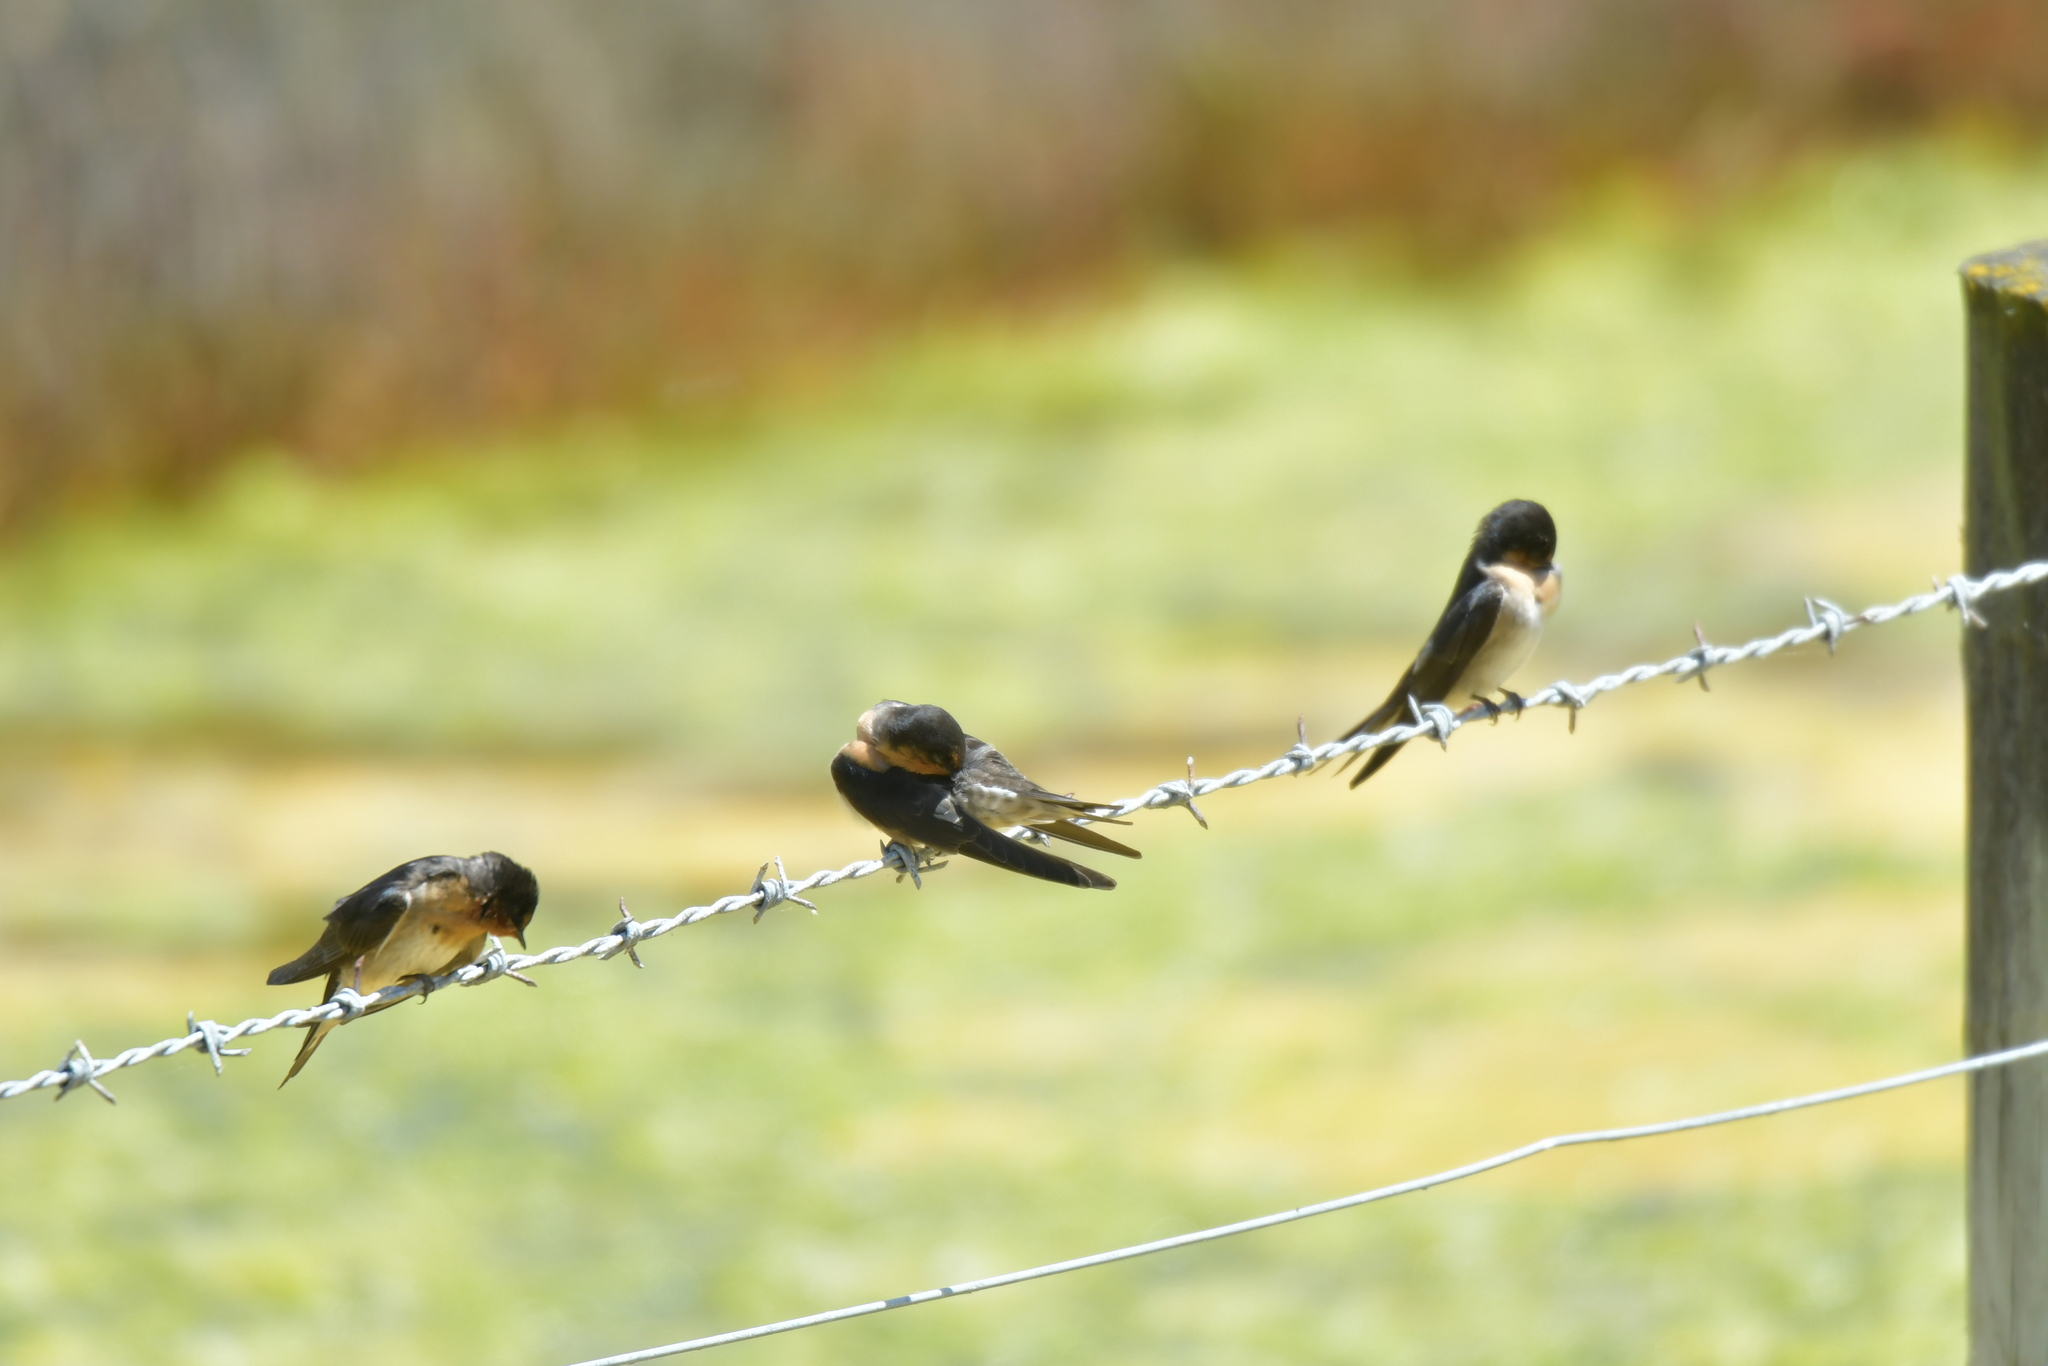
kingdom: Animalia
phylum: Chordata
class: Aves
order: Passeriformes
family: Hirundinidae
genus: Hirundo
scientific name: Hirundo neoxena
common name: Welcome swallow
